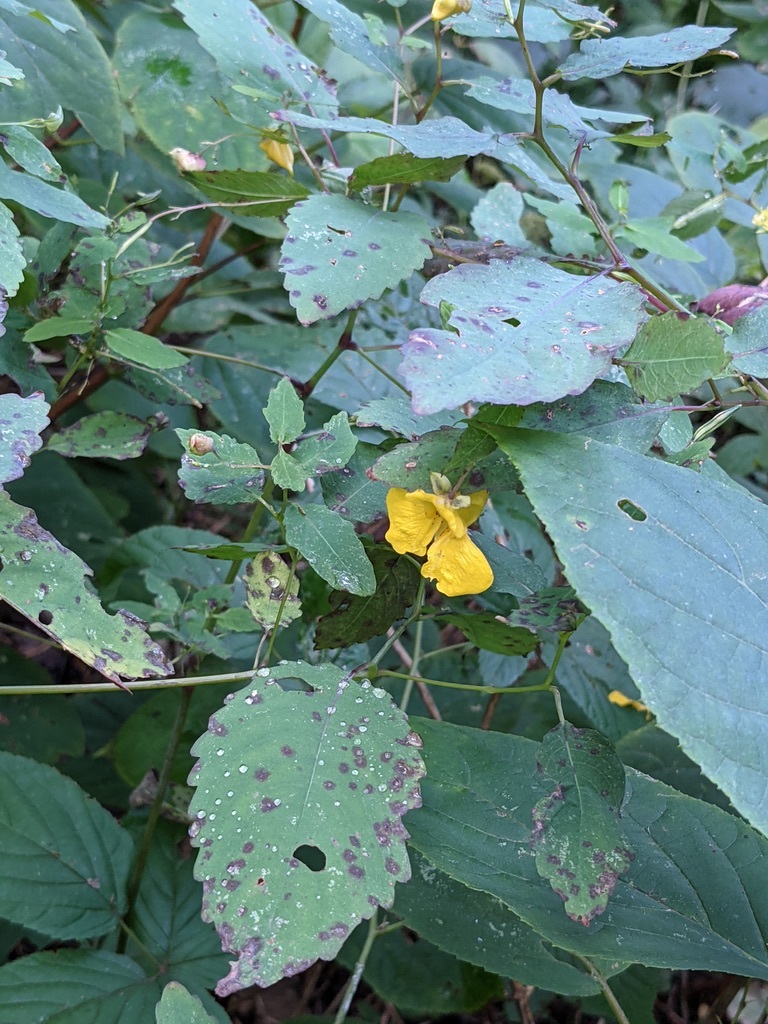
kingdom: Plantae
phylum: Tracheophyta
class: Magnoliopsida
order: Ericales
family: Balsaminaceae
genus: Impatiens
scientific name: Impatiens pallida
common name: Pale snapweed
